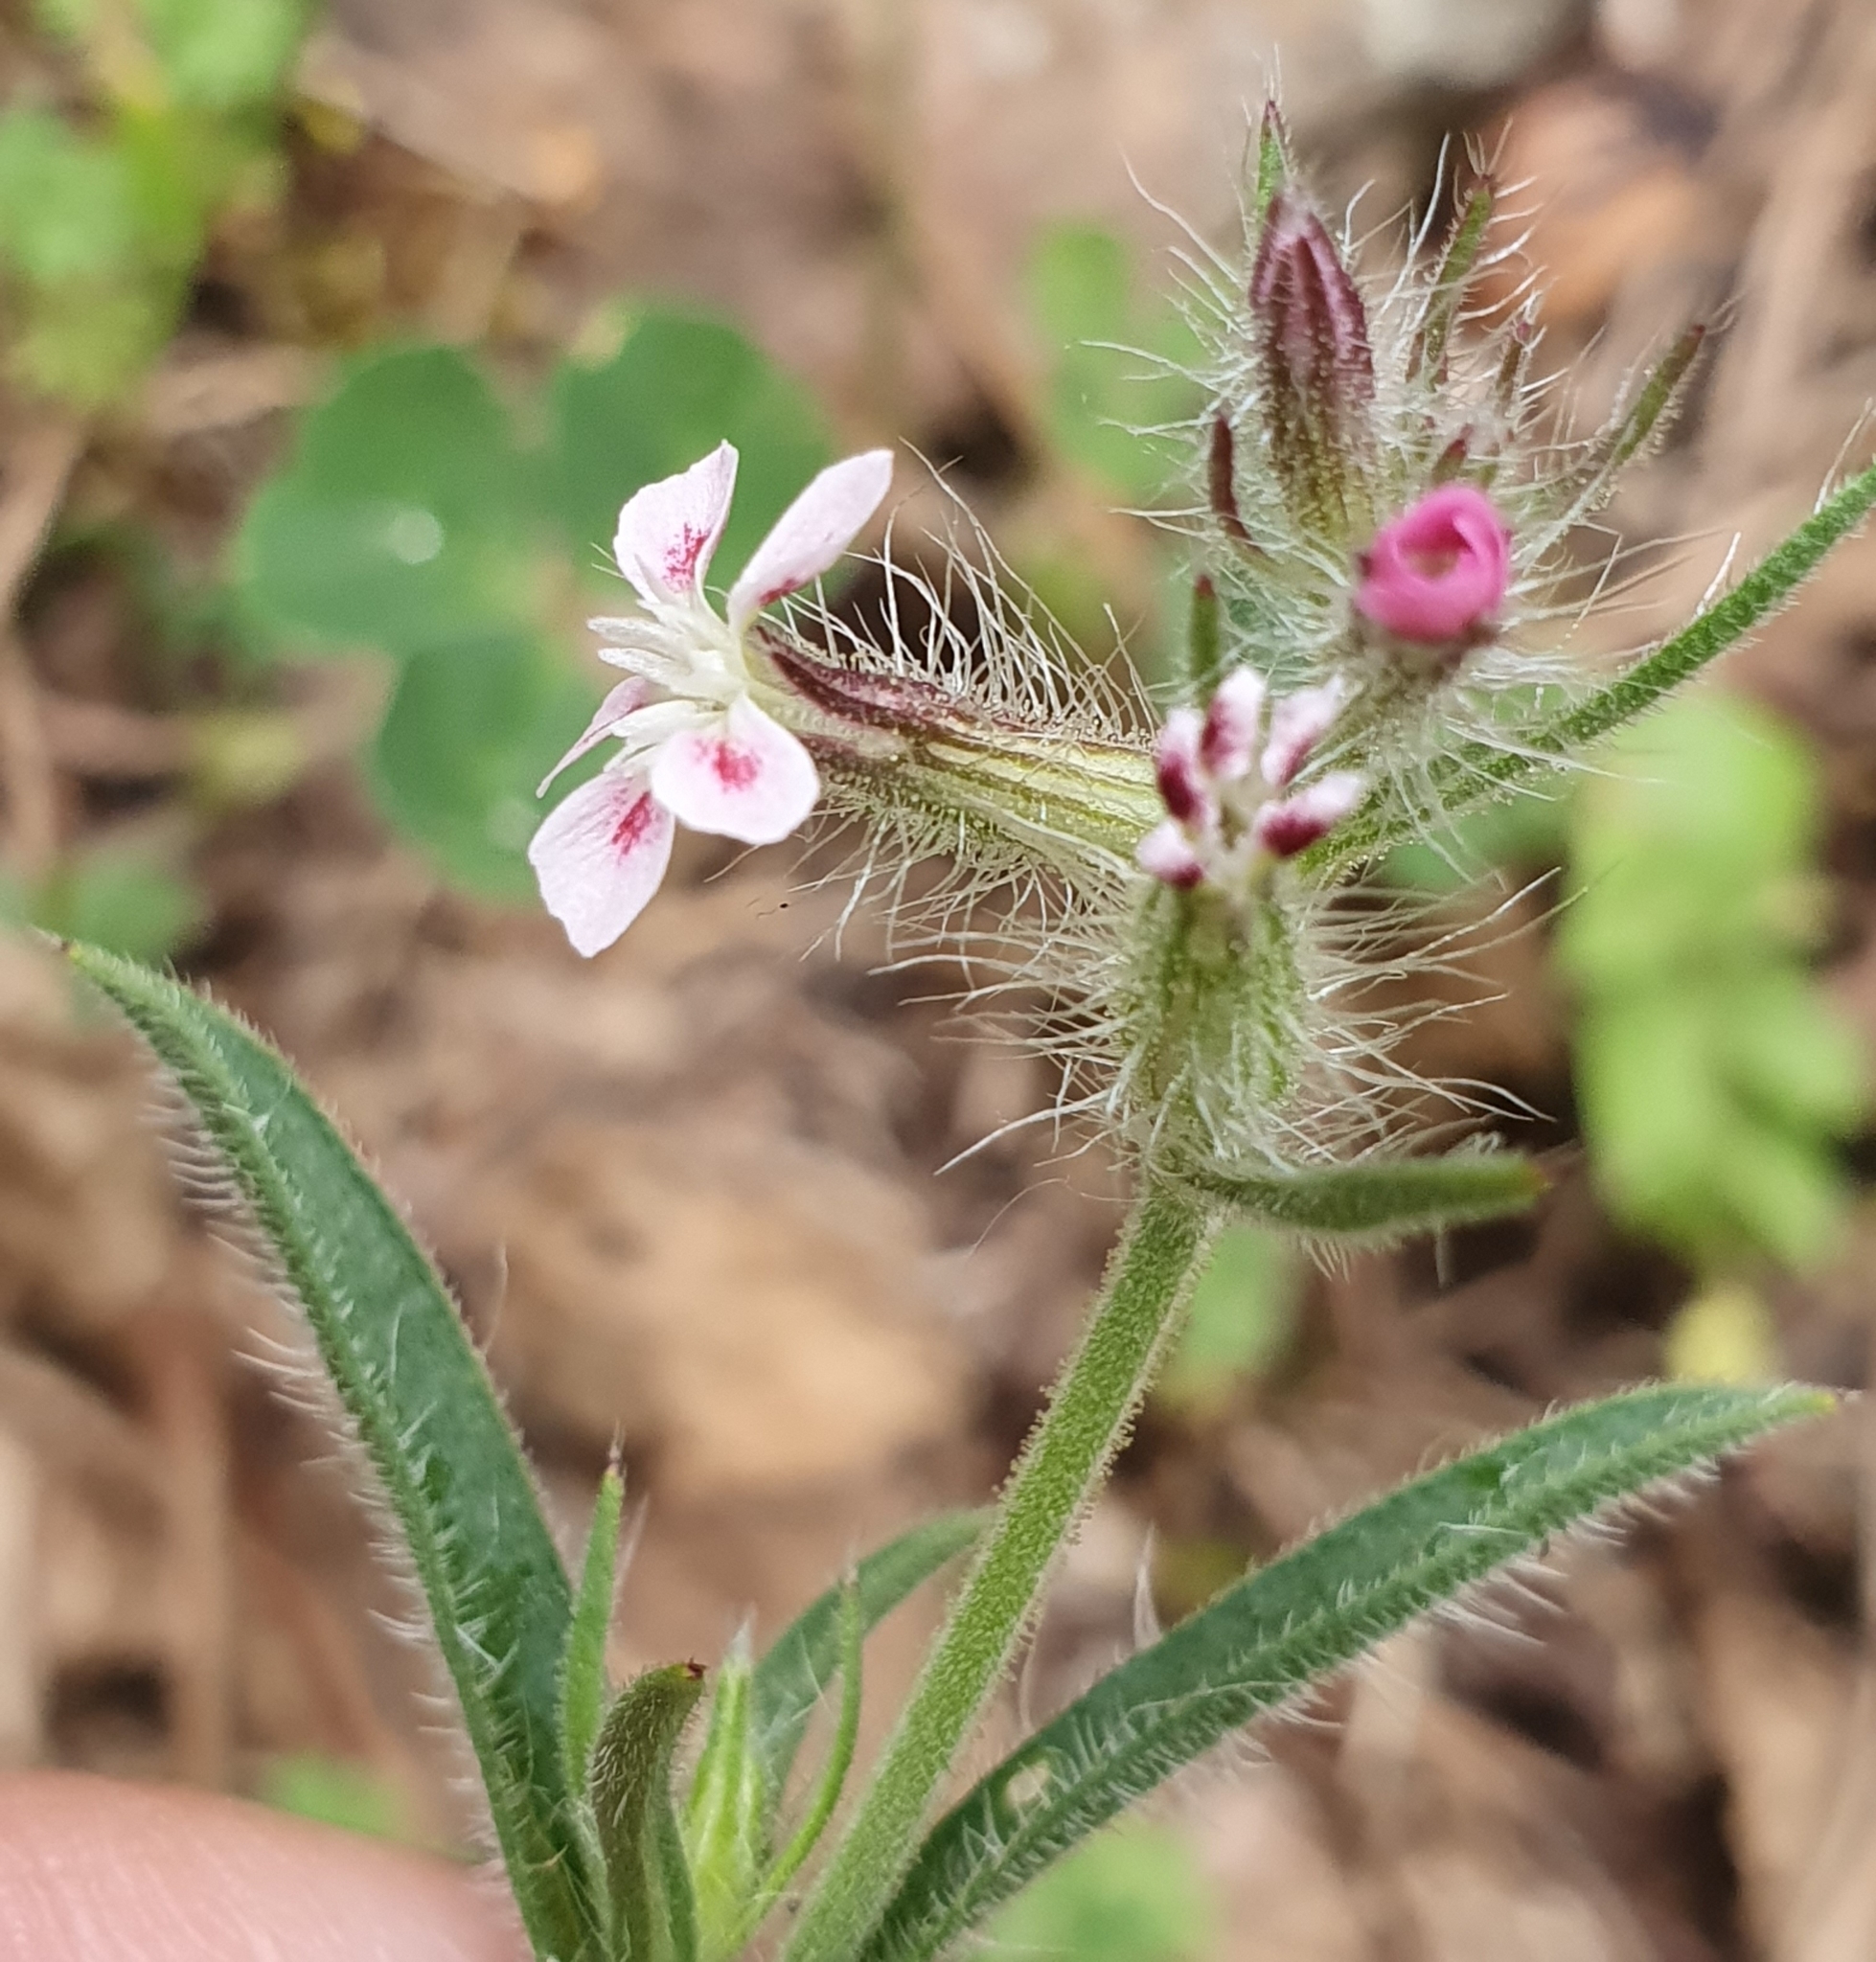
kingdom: Plantae
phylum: Tracheophyta
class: Magnoliopsida
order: Caryophyllales
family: Caryophyllaceae
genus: Silene
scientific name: Silene gallica
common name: Small-flowered catchfly
